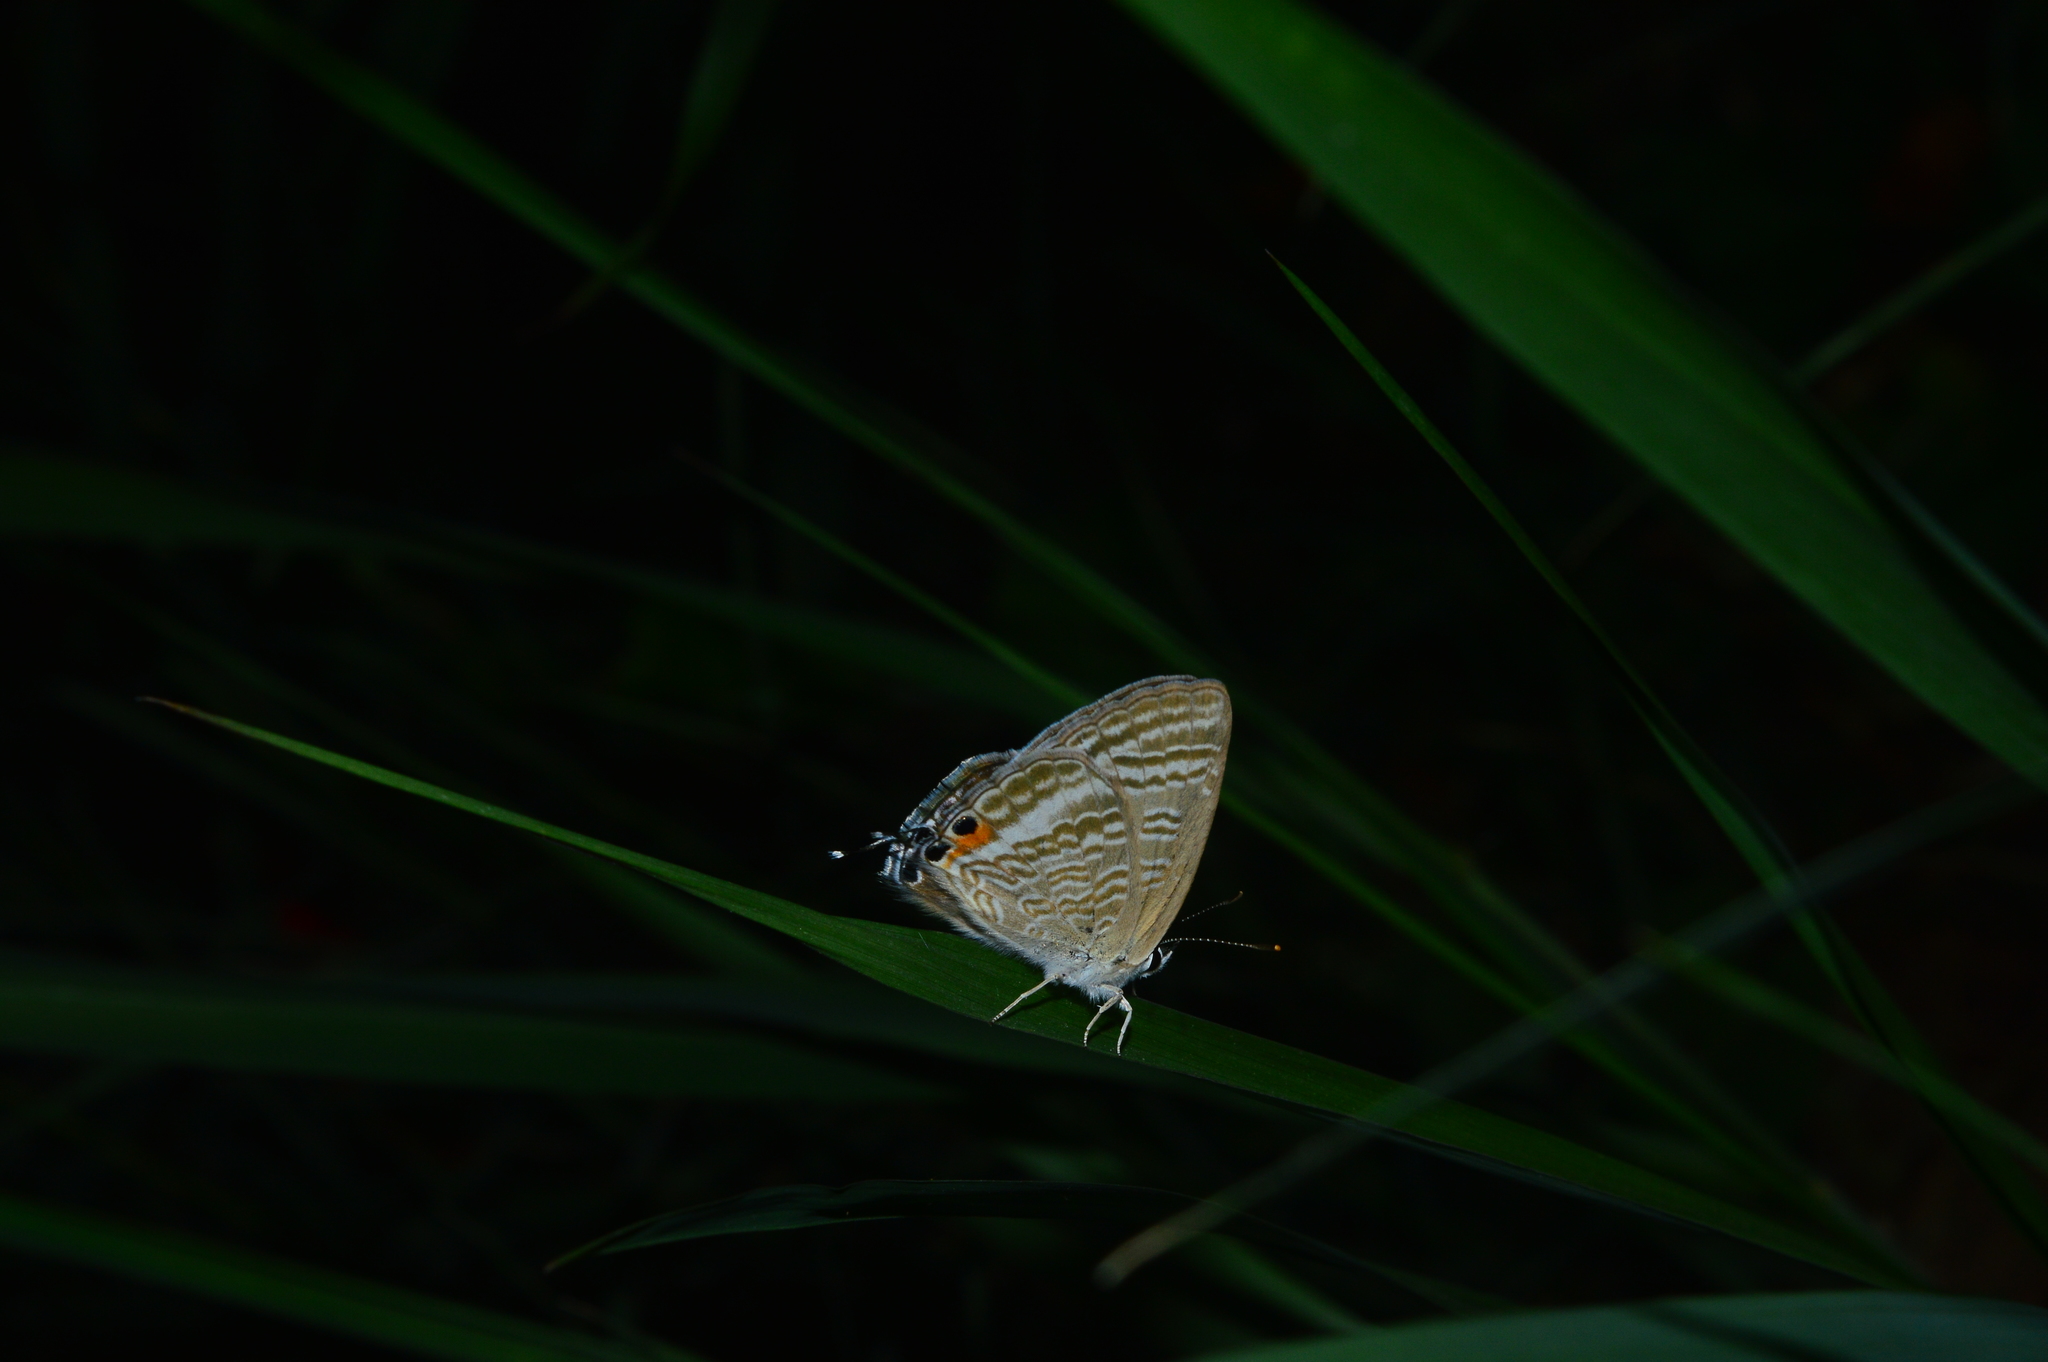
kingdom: Animalia
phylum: Arthropoda
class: Insecta
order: Lepidoptera
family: Lycaenidae
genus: Lampides
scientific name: Lampides boeticus
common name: Long-tailed blue
